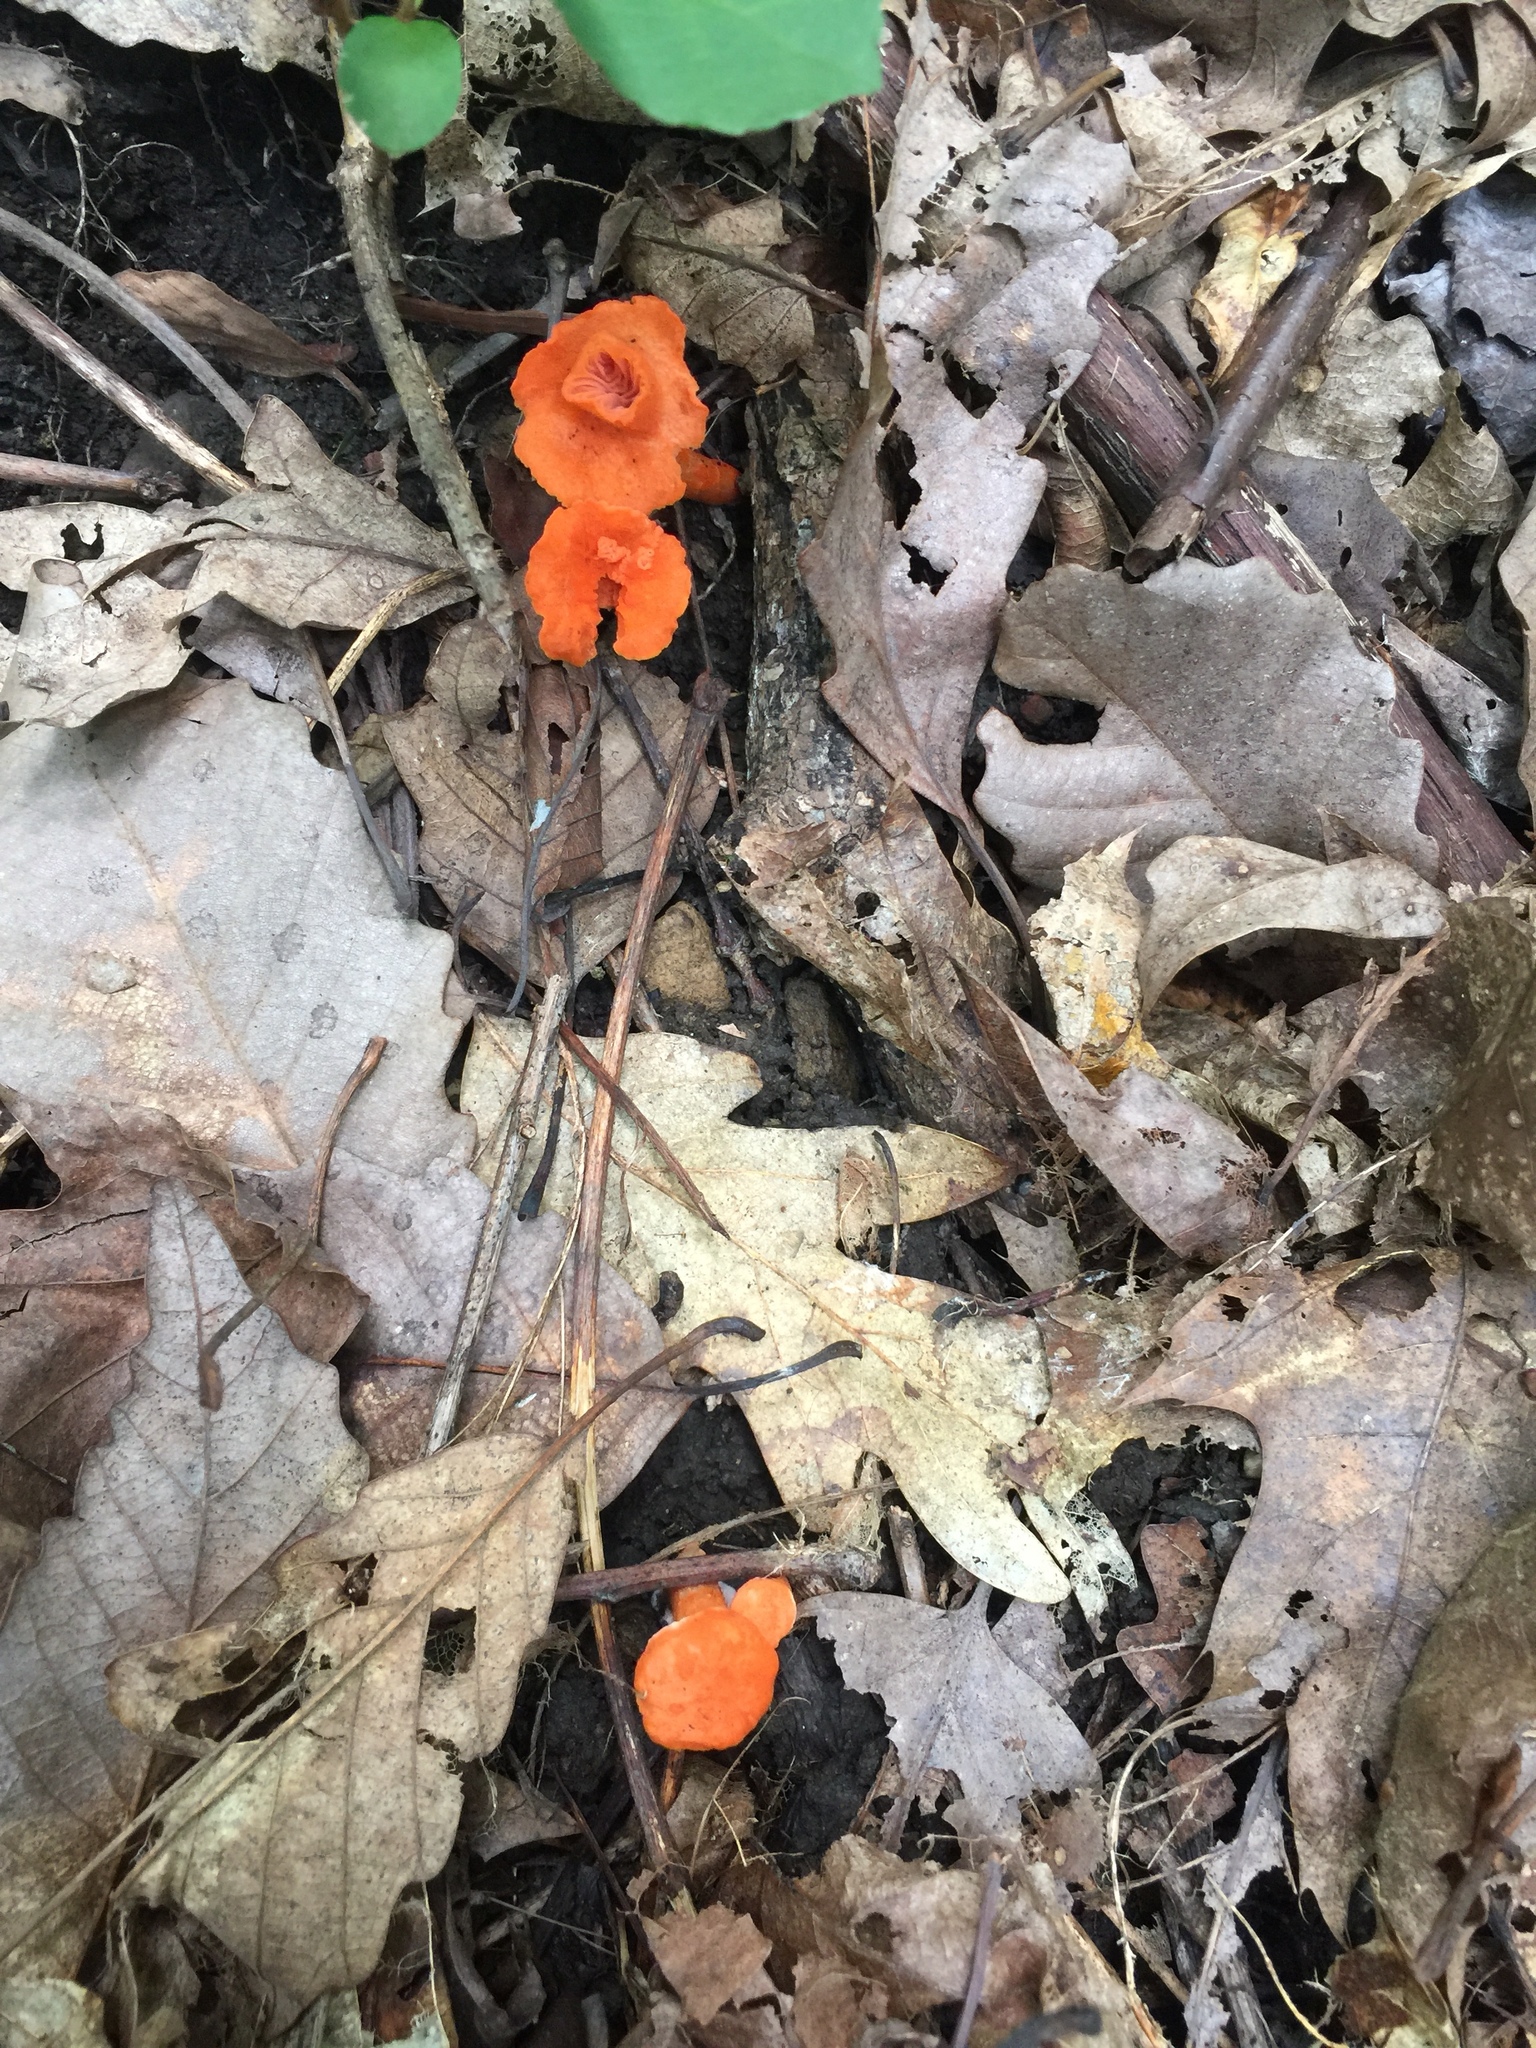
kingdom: Fungi
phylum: Basidiomycota
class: Agaricomycetes
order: Cantharellales
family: Hydnaceae
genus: Cantharellus
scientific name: Cantharellus cinnabarinus
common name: Cinnabar chanterelle
